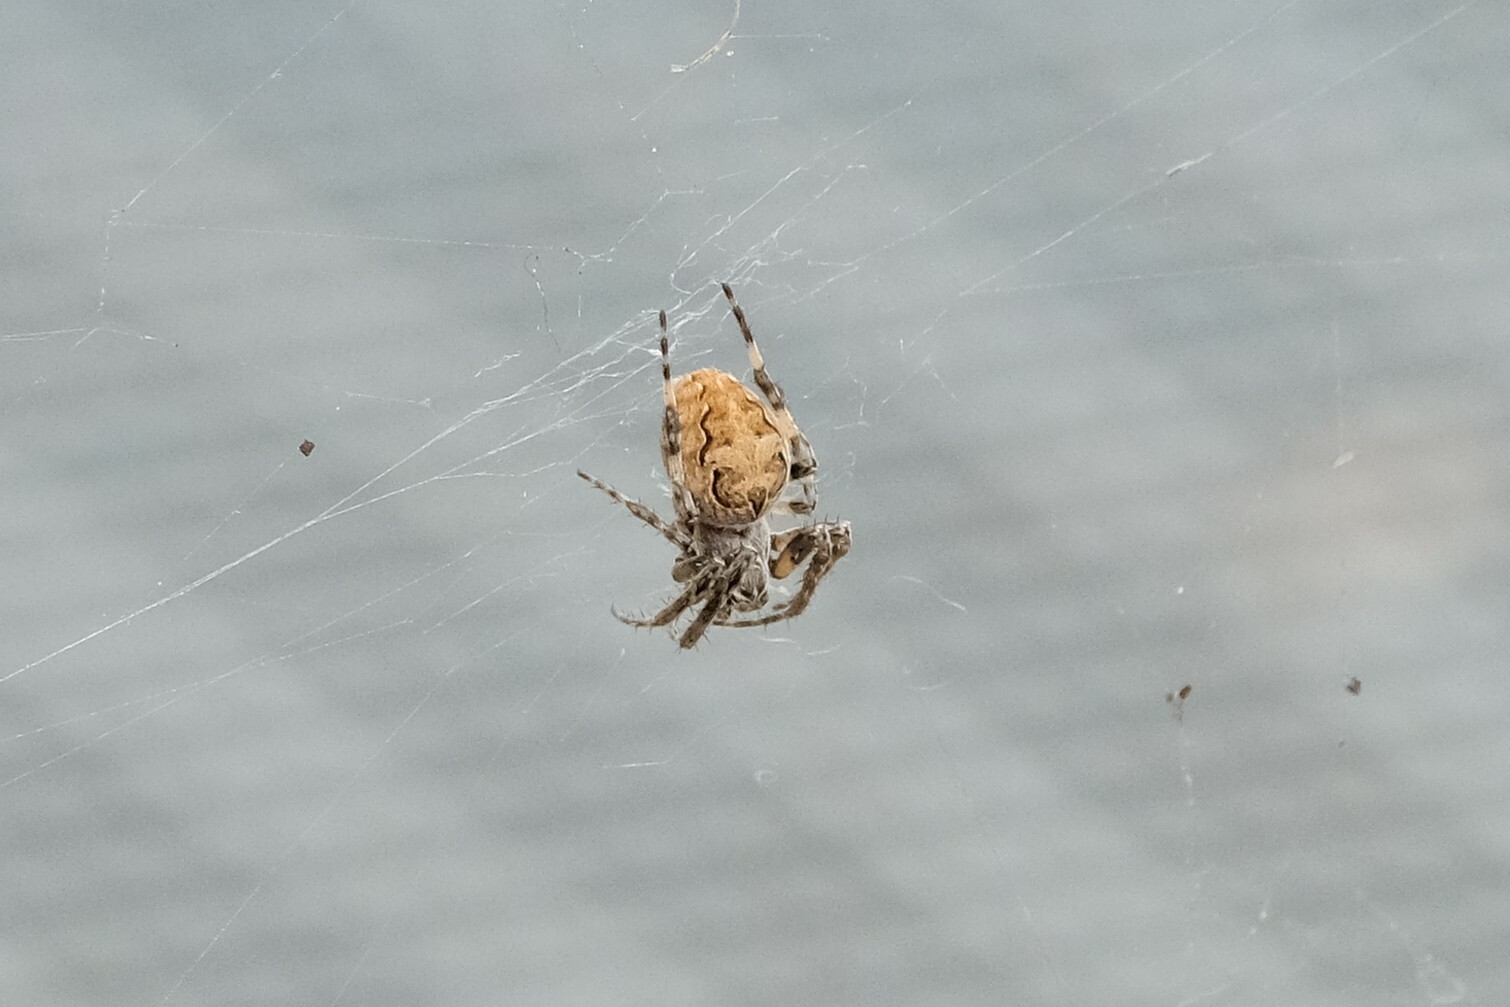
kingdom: Animalia
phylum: Arthropoda
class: Arachnida
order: Araneae
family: Araneidae
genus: Larinioides
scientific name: Larinioides sclopetarius
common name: Bridge orbweaver
